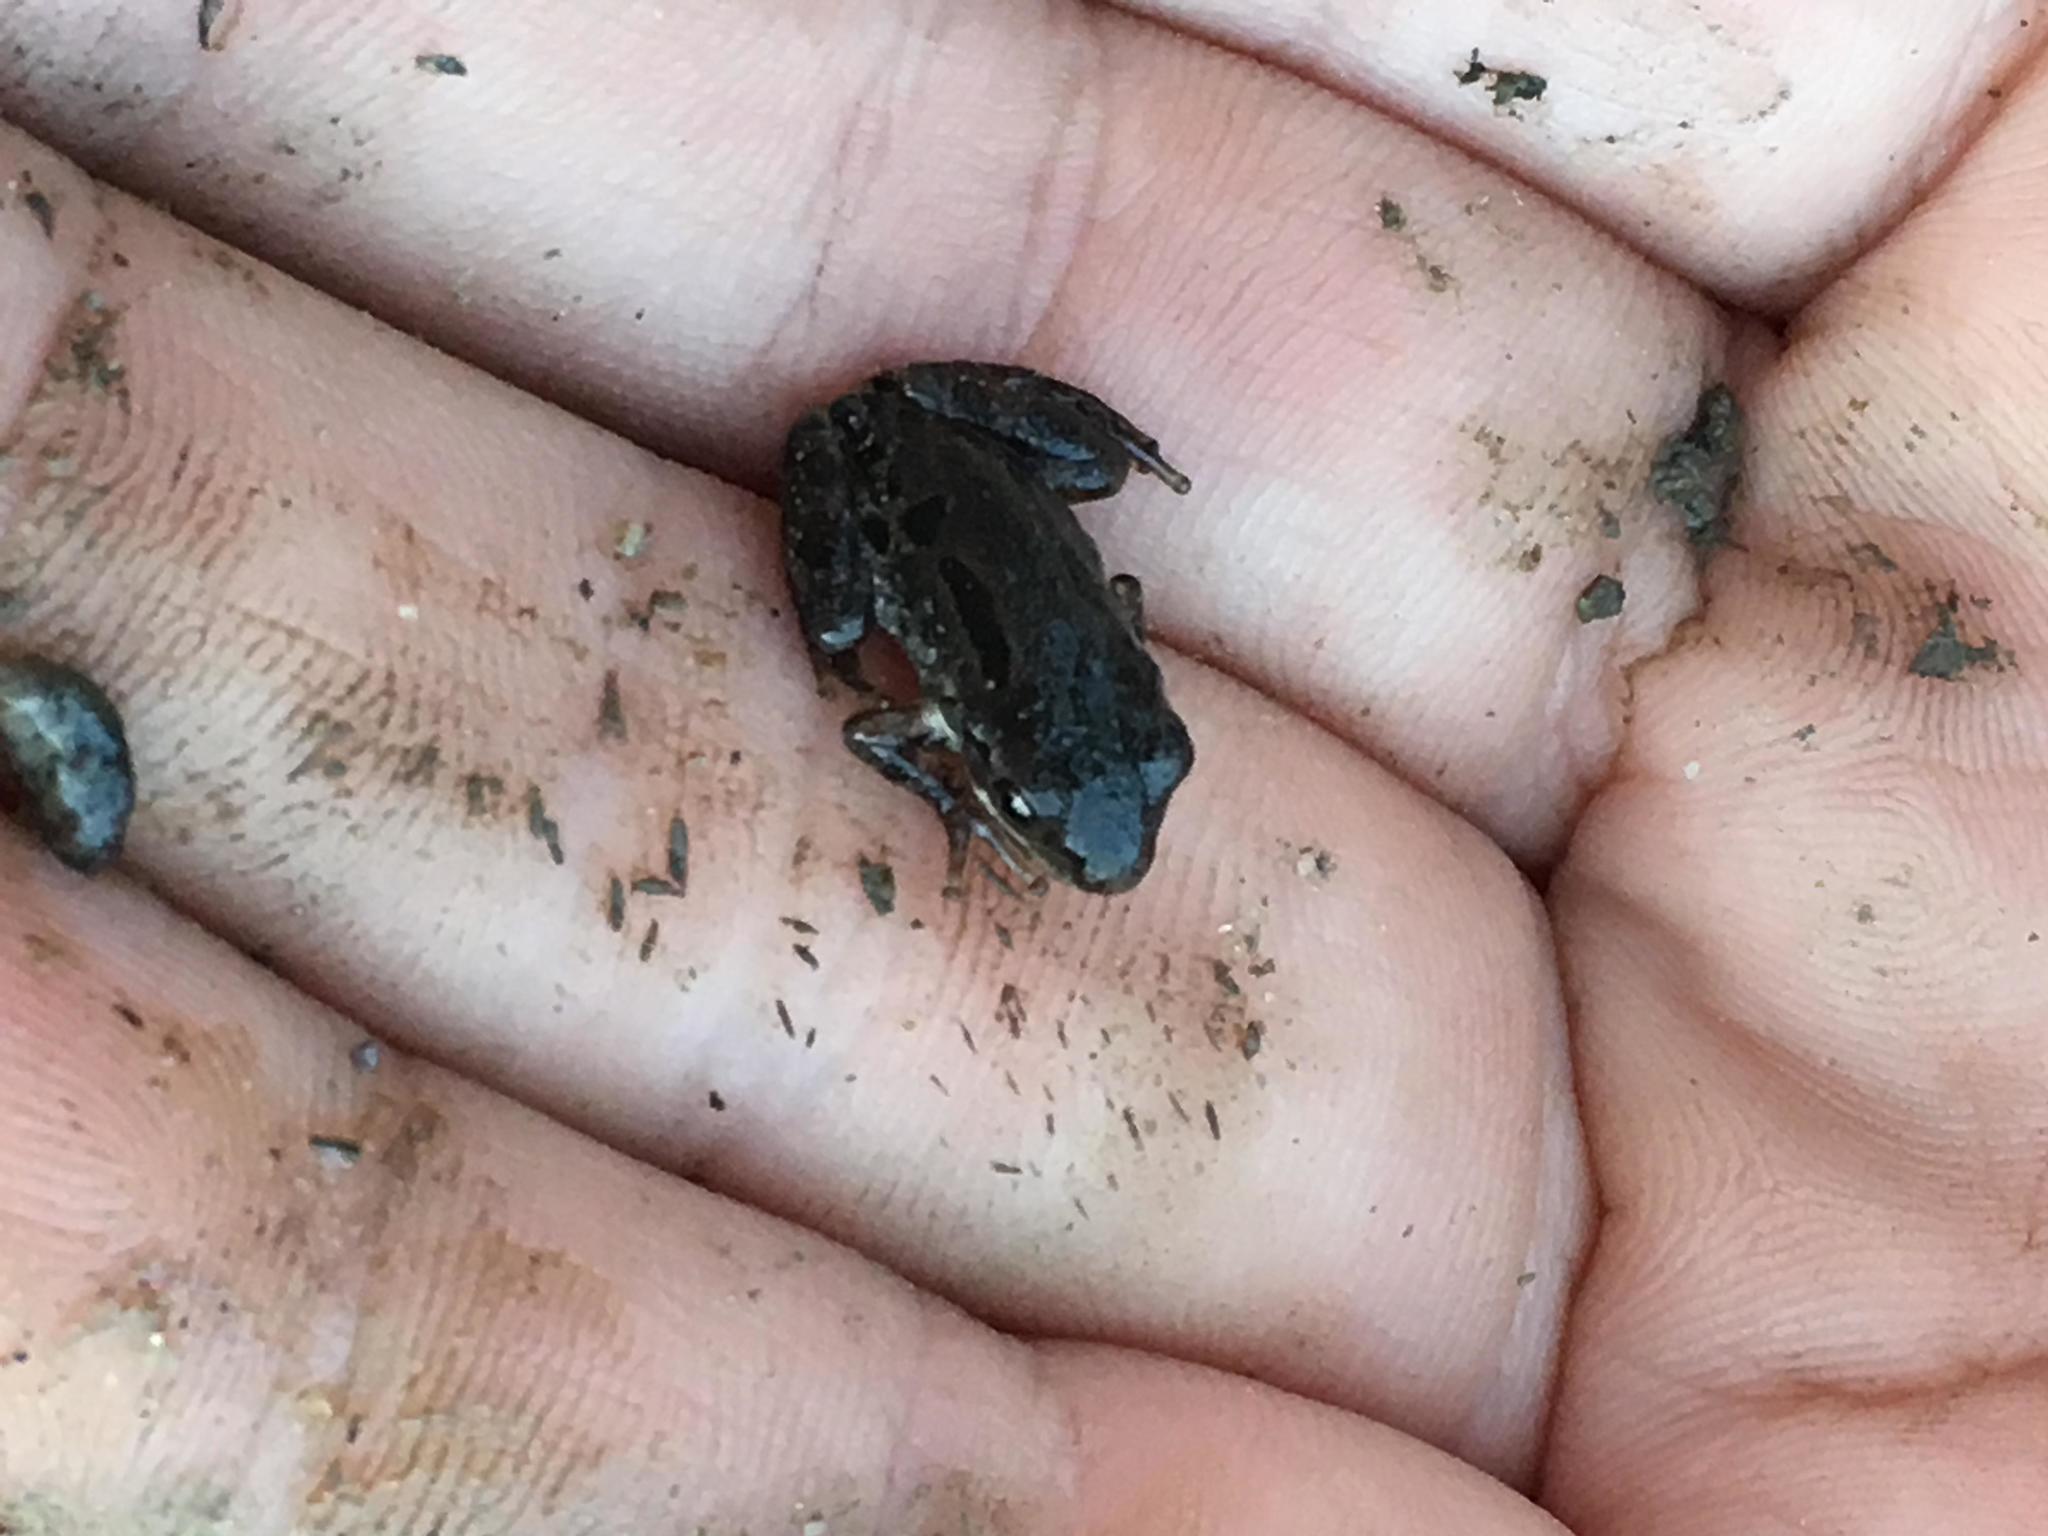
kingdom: Animalia
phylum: Chordata
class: Amphibia
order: Anura
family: Hylidae
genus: Pseudacris
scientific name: Pseudacris regilla
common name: Pacific chorus frog
